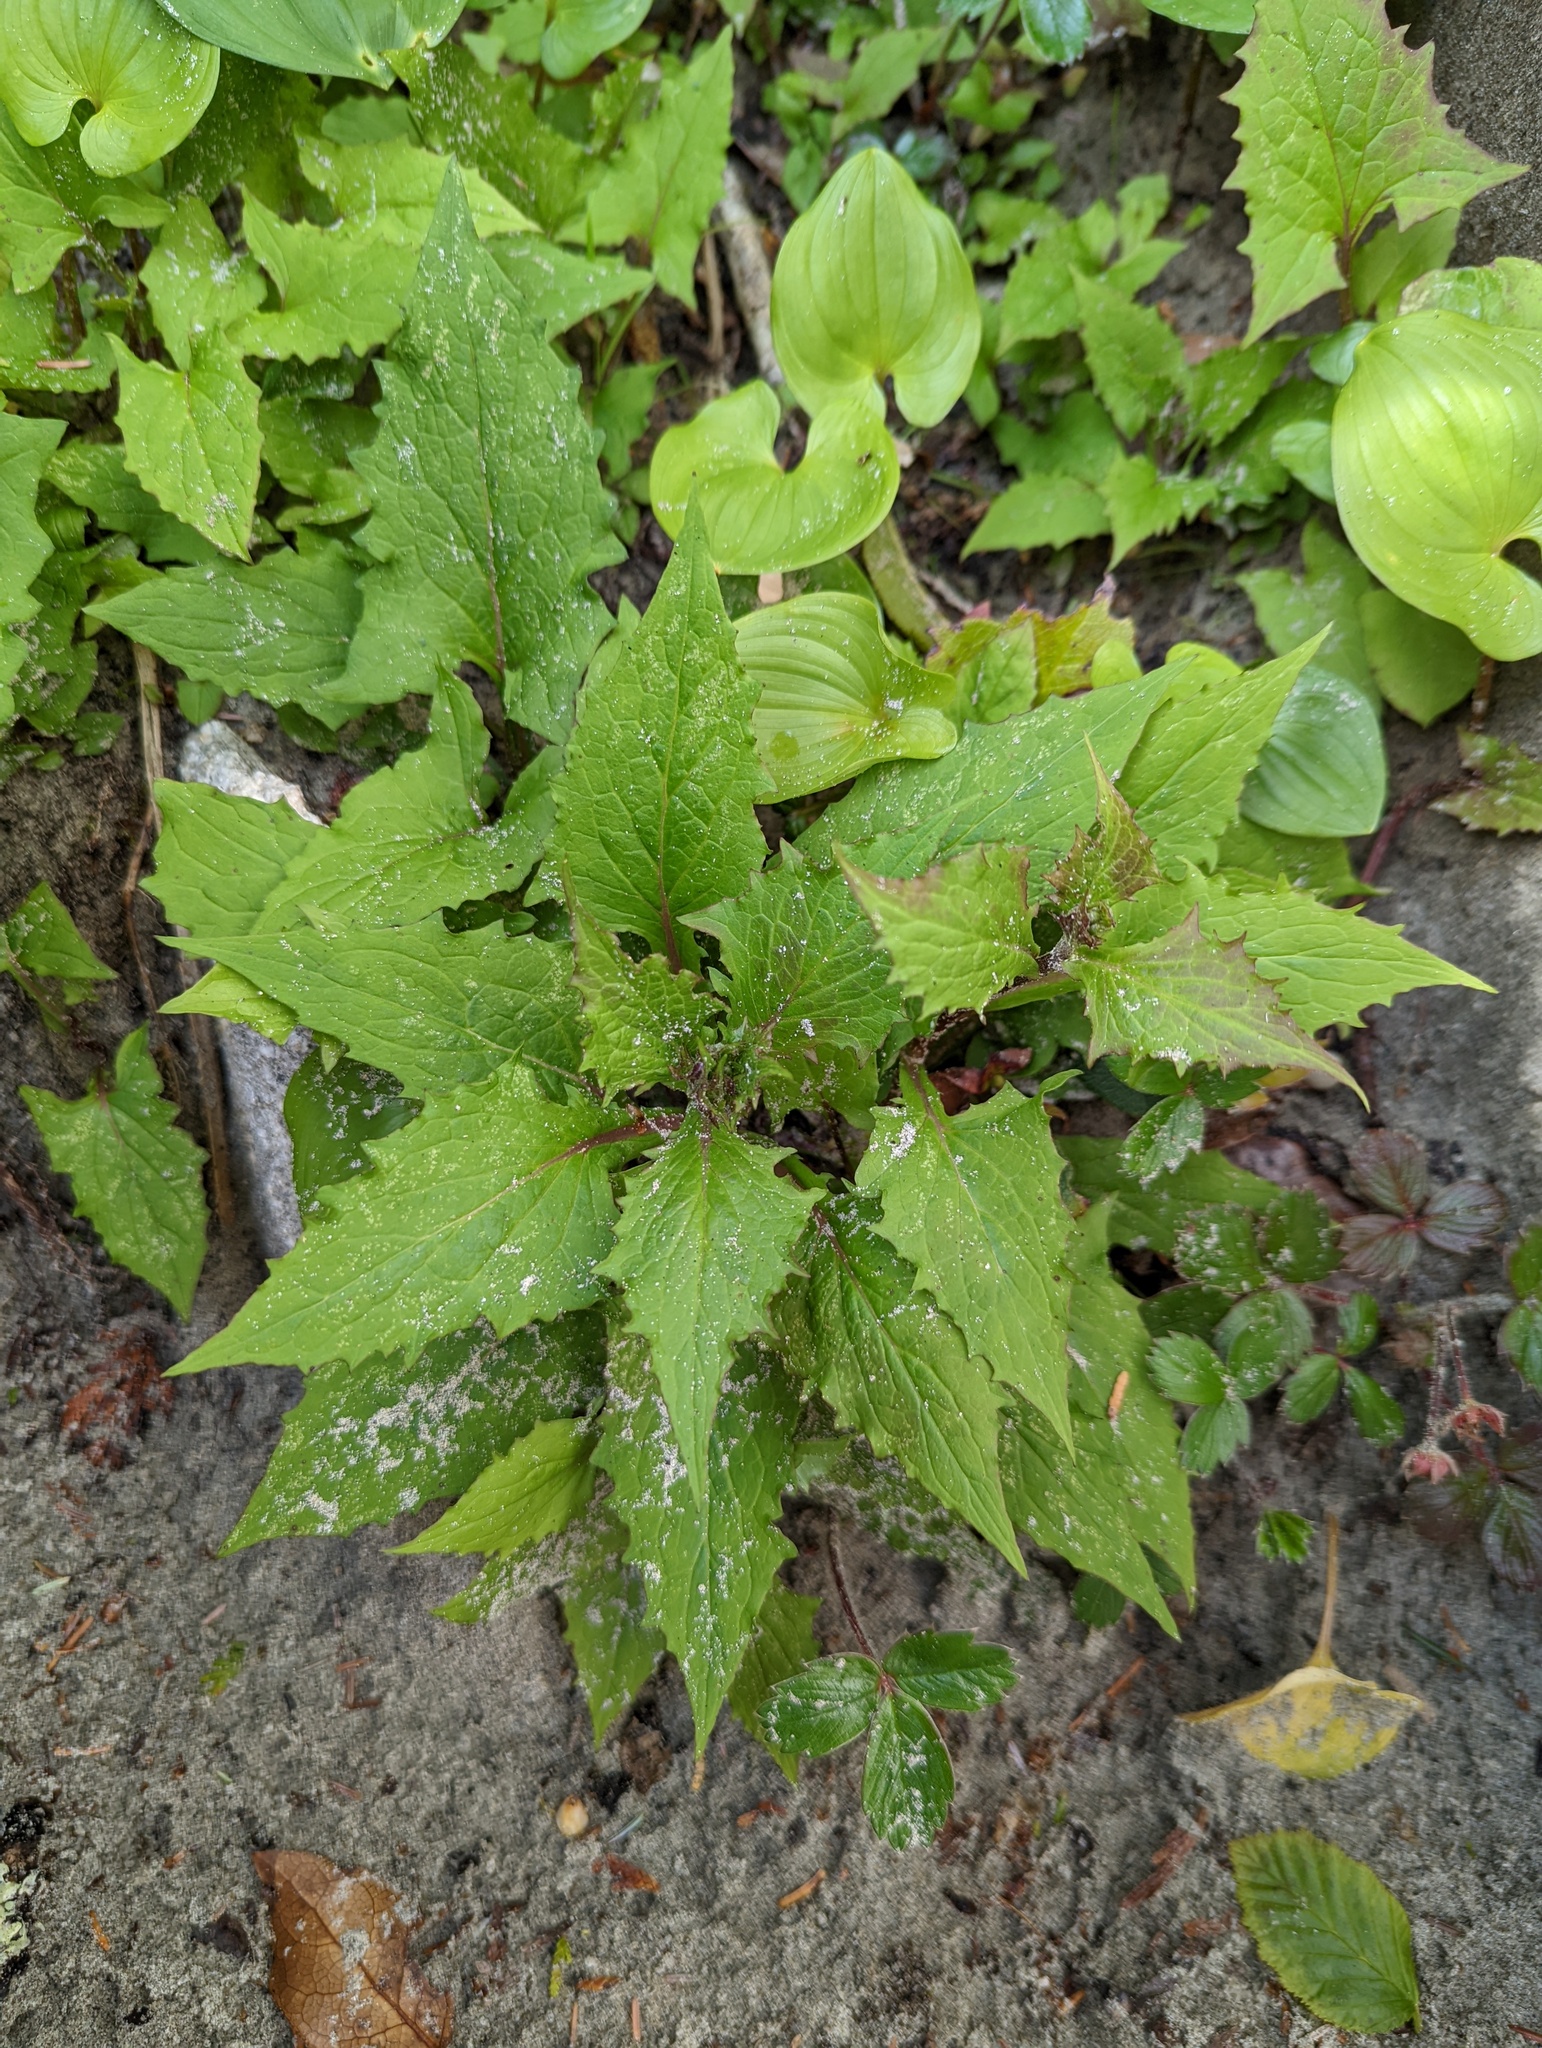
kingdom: Plantae
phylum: Tracheophyta
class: Magnoliopsida
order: Asterales
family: Asteraceae
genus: Nabalus
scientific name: Nabalus hastatus
